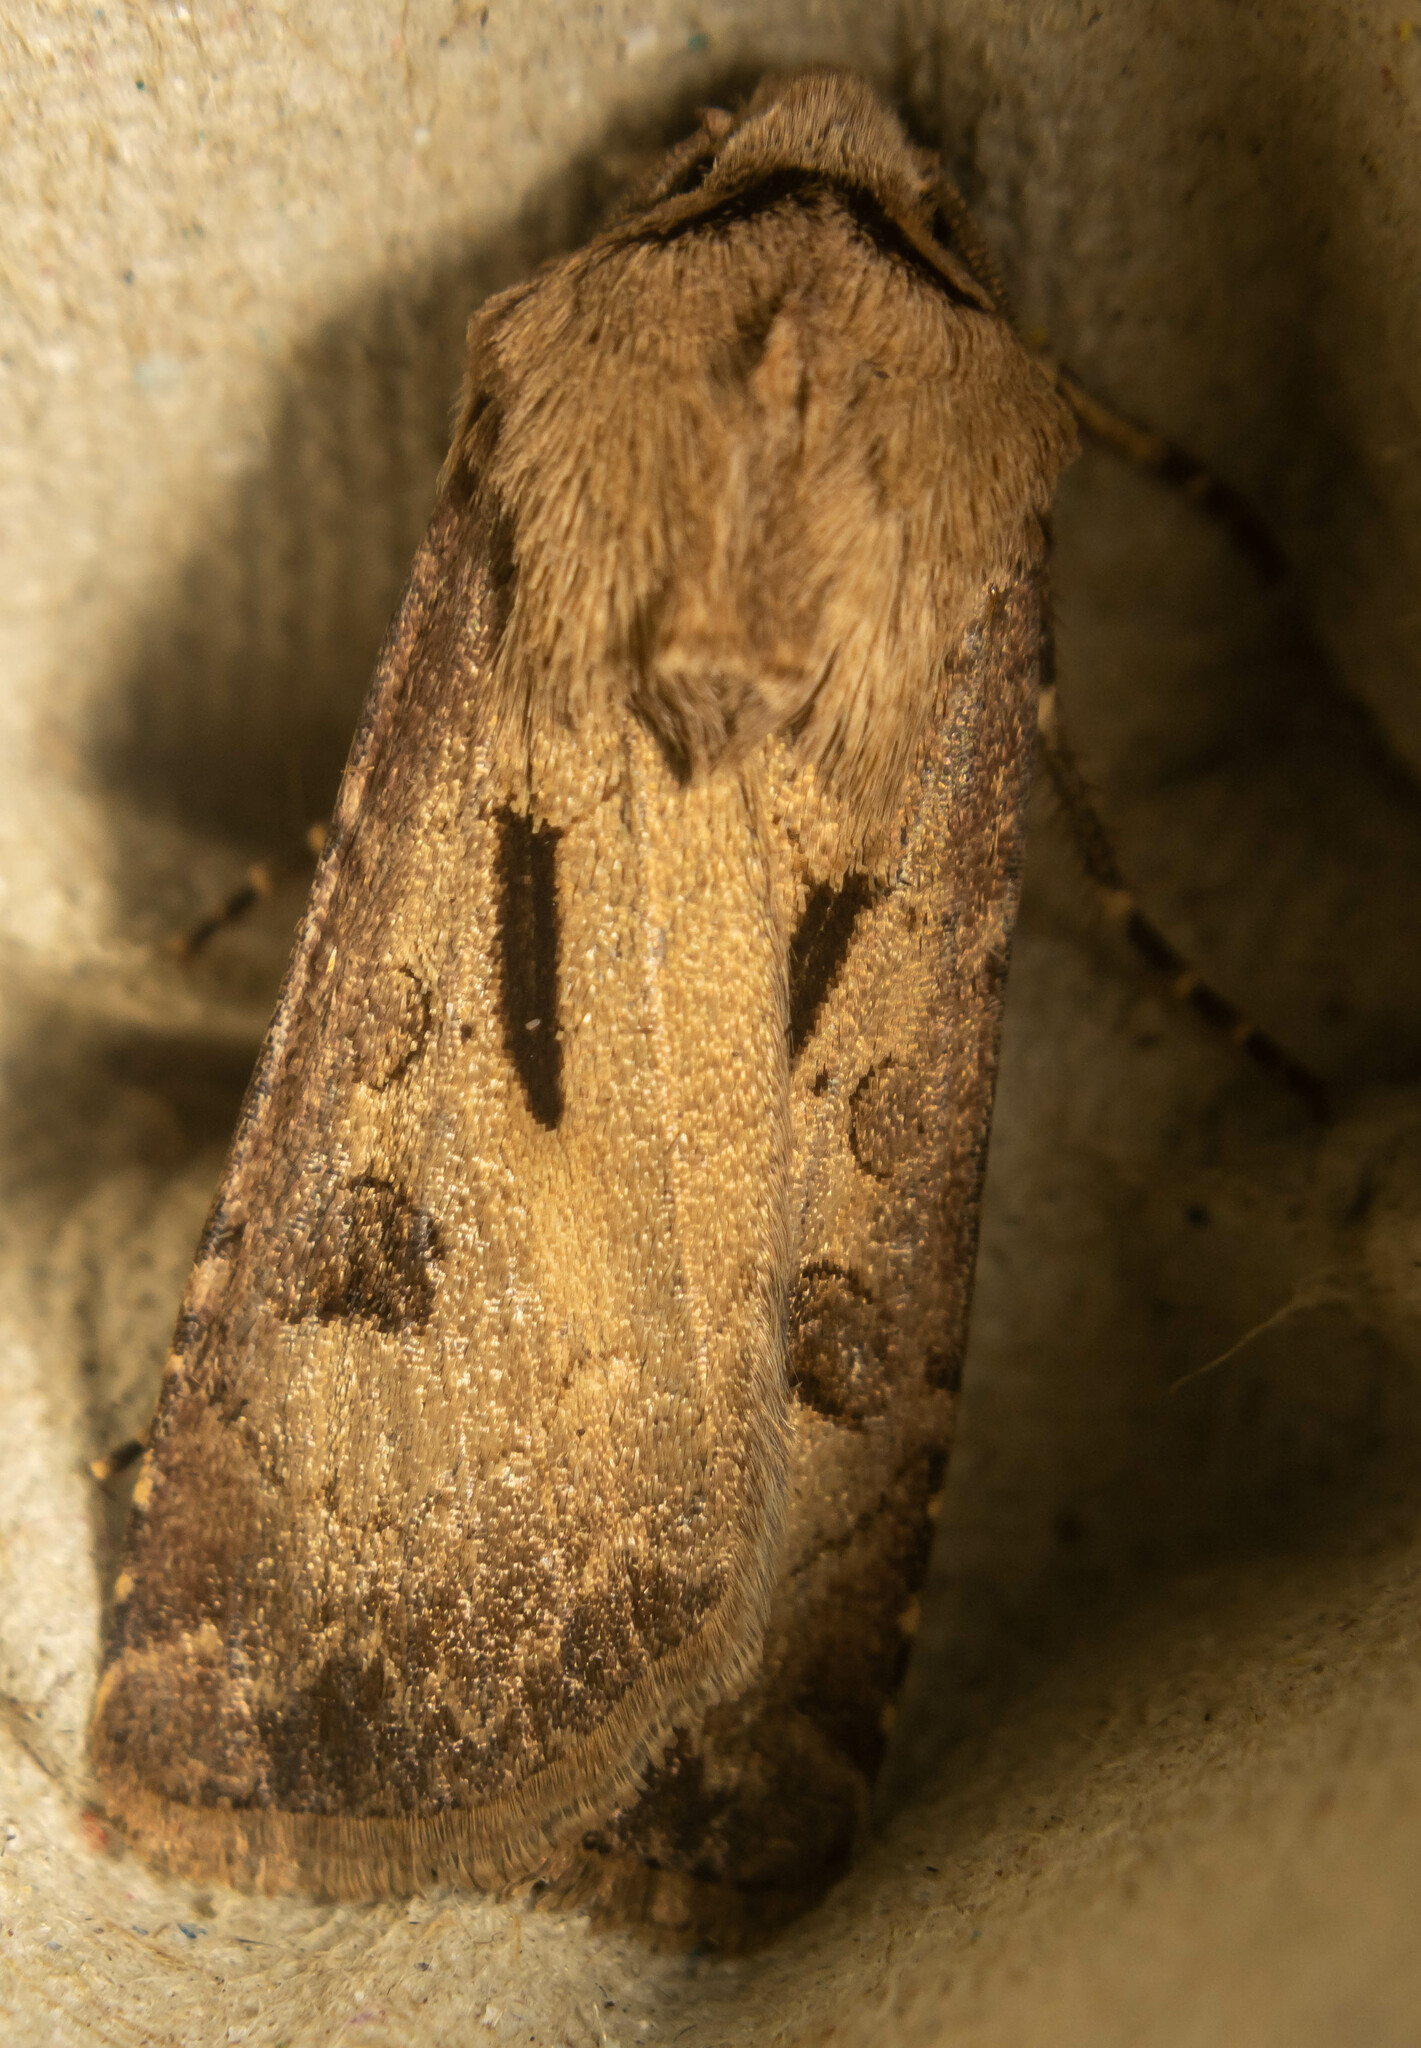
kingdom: Animalia
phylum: Arthropoda
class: Insecta
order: Lepidoptera
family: Noctuidae
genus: Agrotis
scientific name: Agrotis exclamationis
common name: Heart and dart
